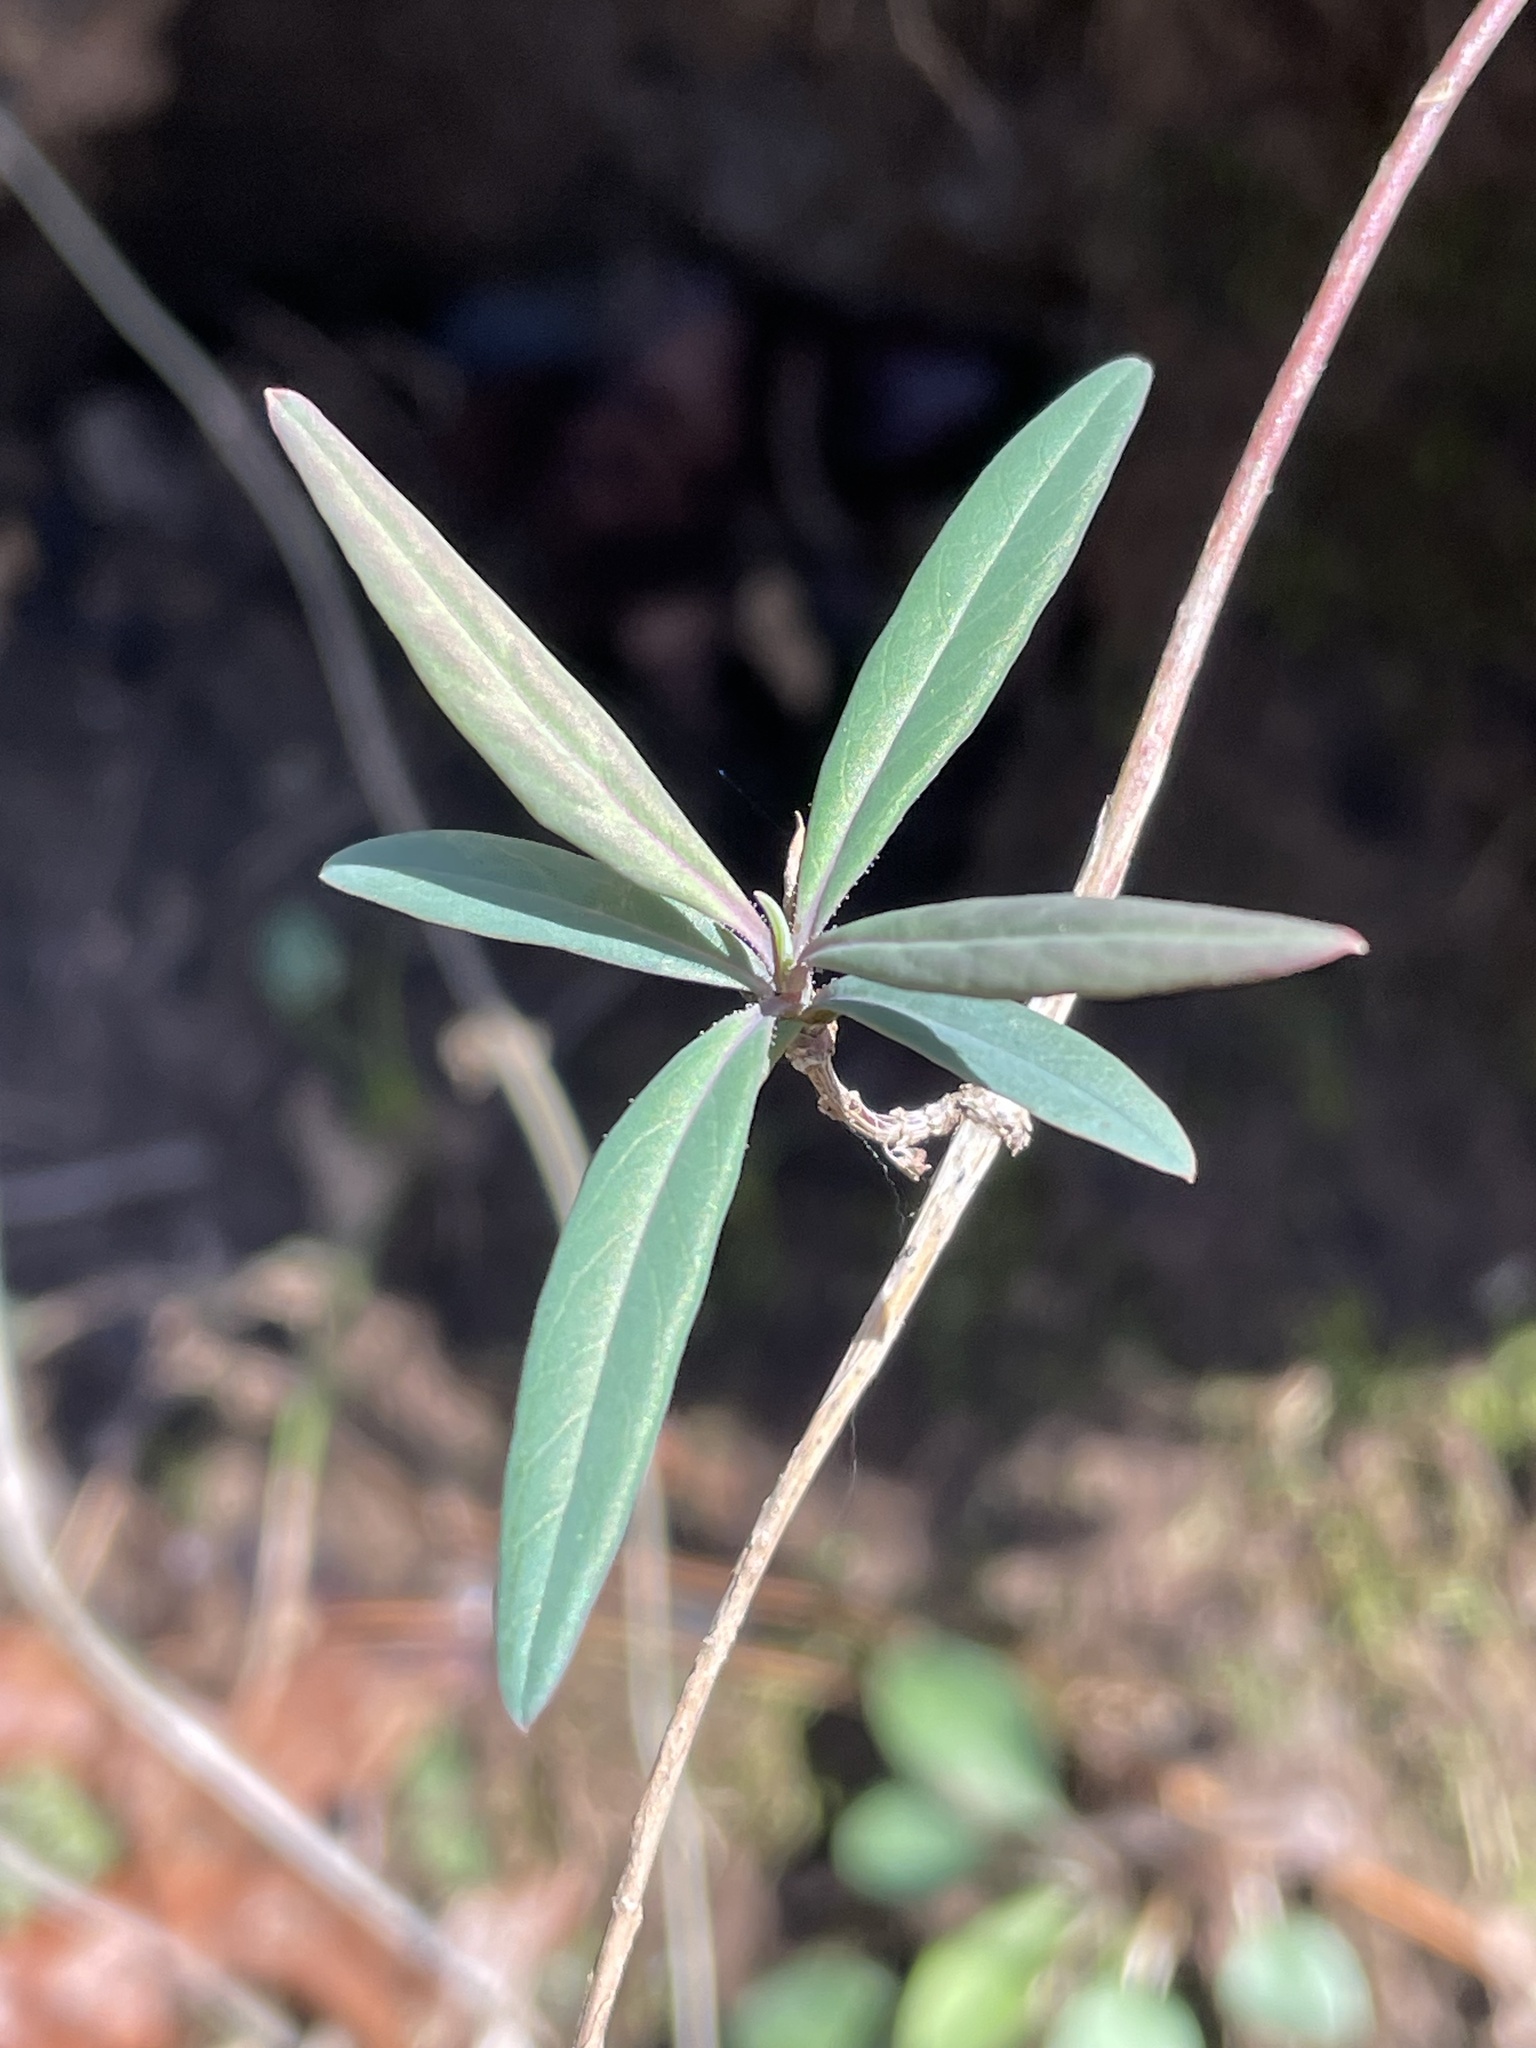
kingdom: Plantae
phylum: Tracheophyta
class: Magnoliopsida
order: Dipsacales
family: Caprifoliaceae
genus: Lonicera
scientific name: Lonicera sempervirens
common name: Coral honeysuckle
